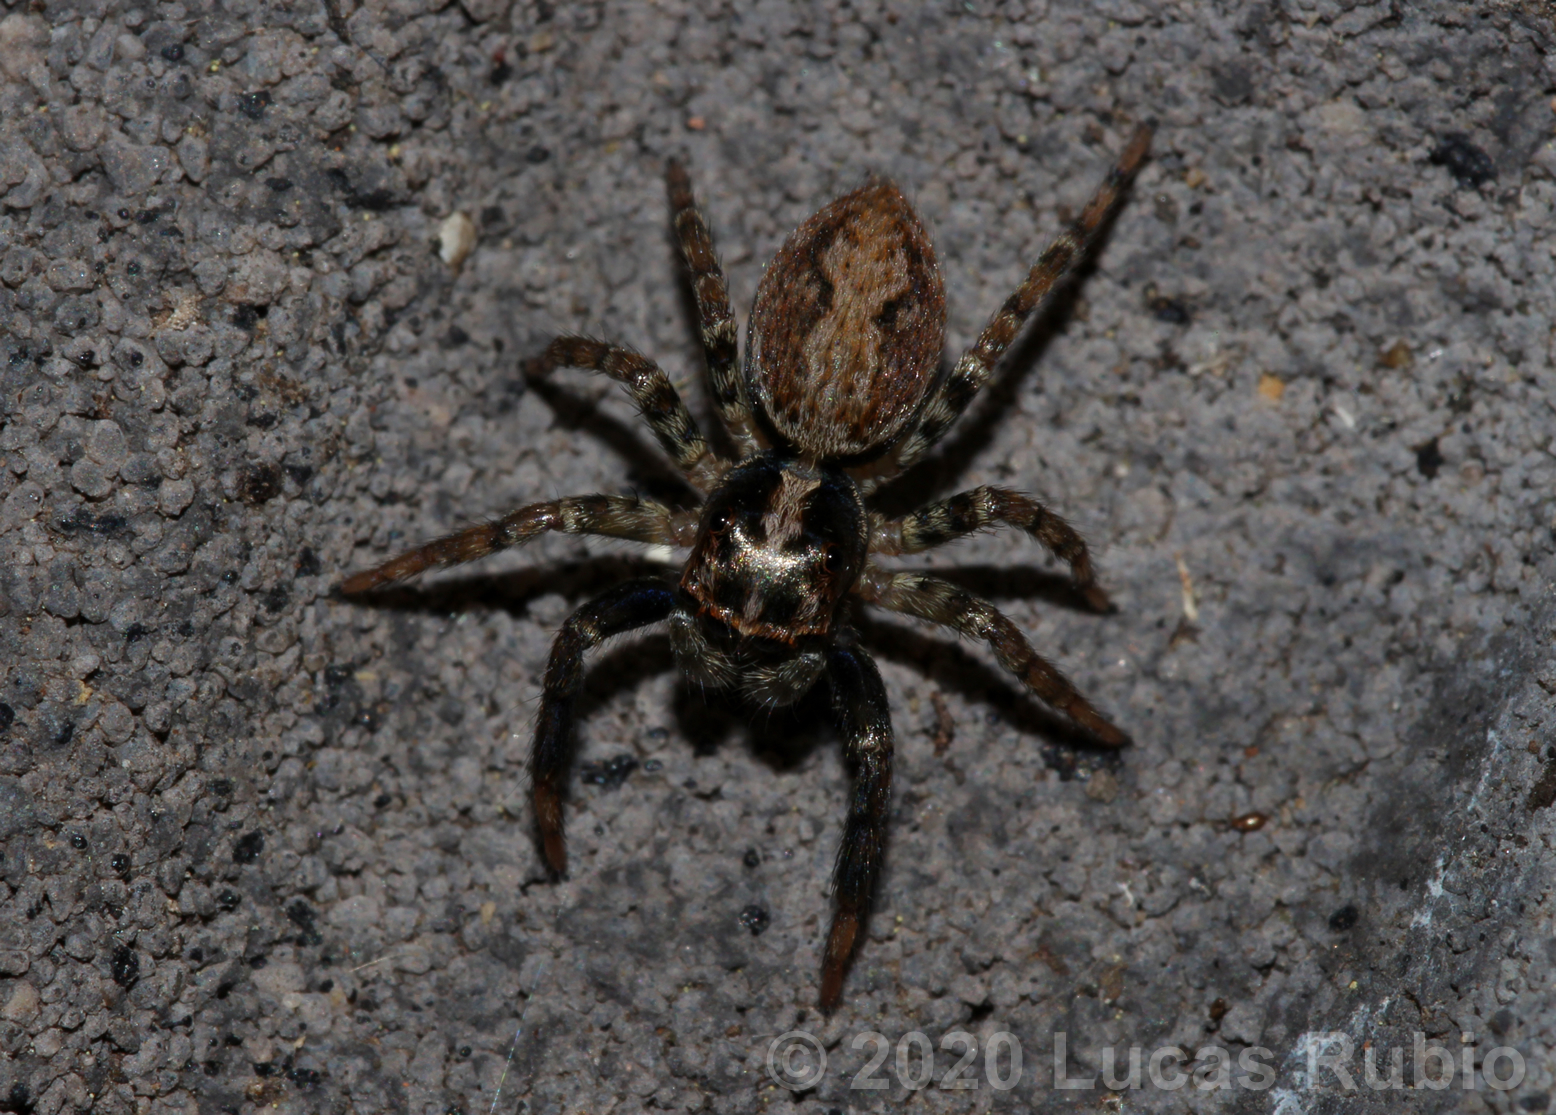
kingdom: Animalia
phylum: Arthropoda
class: Arachnida
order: Araneae
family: Salticidae
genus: Asaphobelis
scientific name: Asaphobelis physonychus
